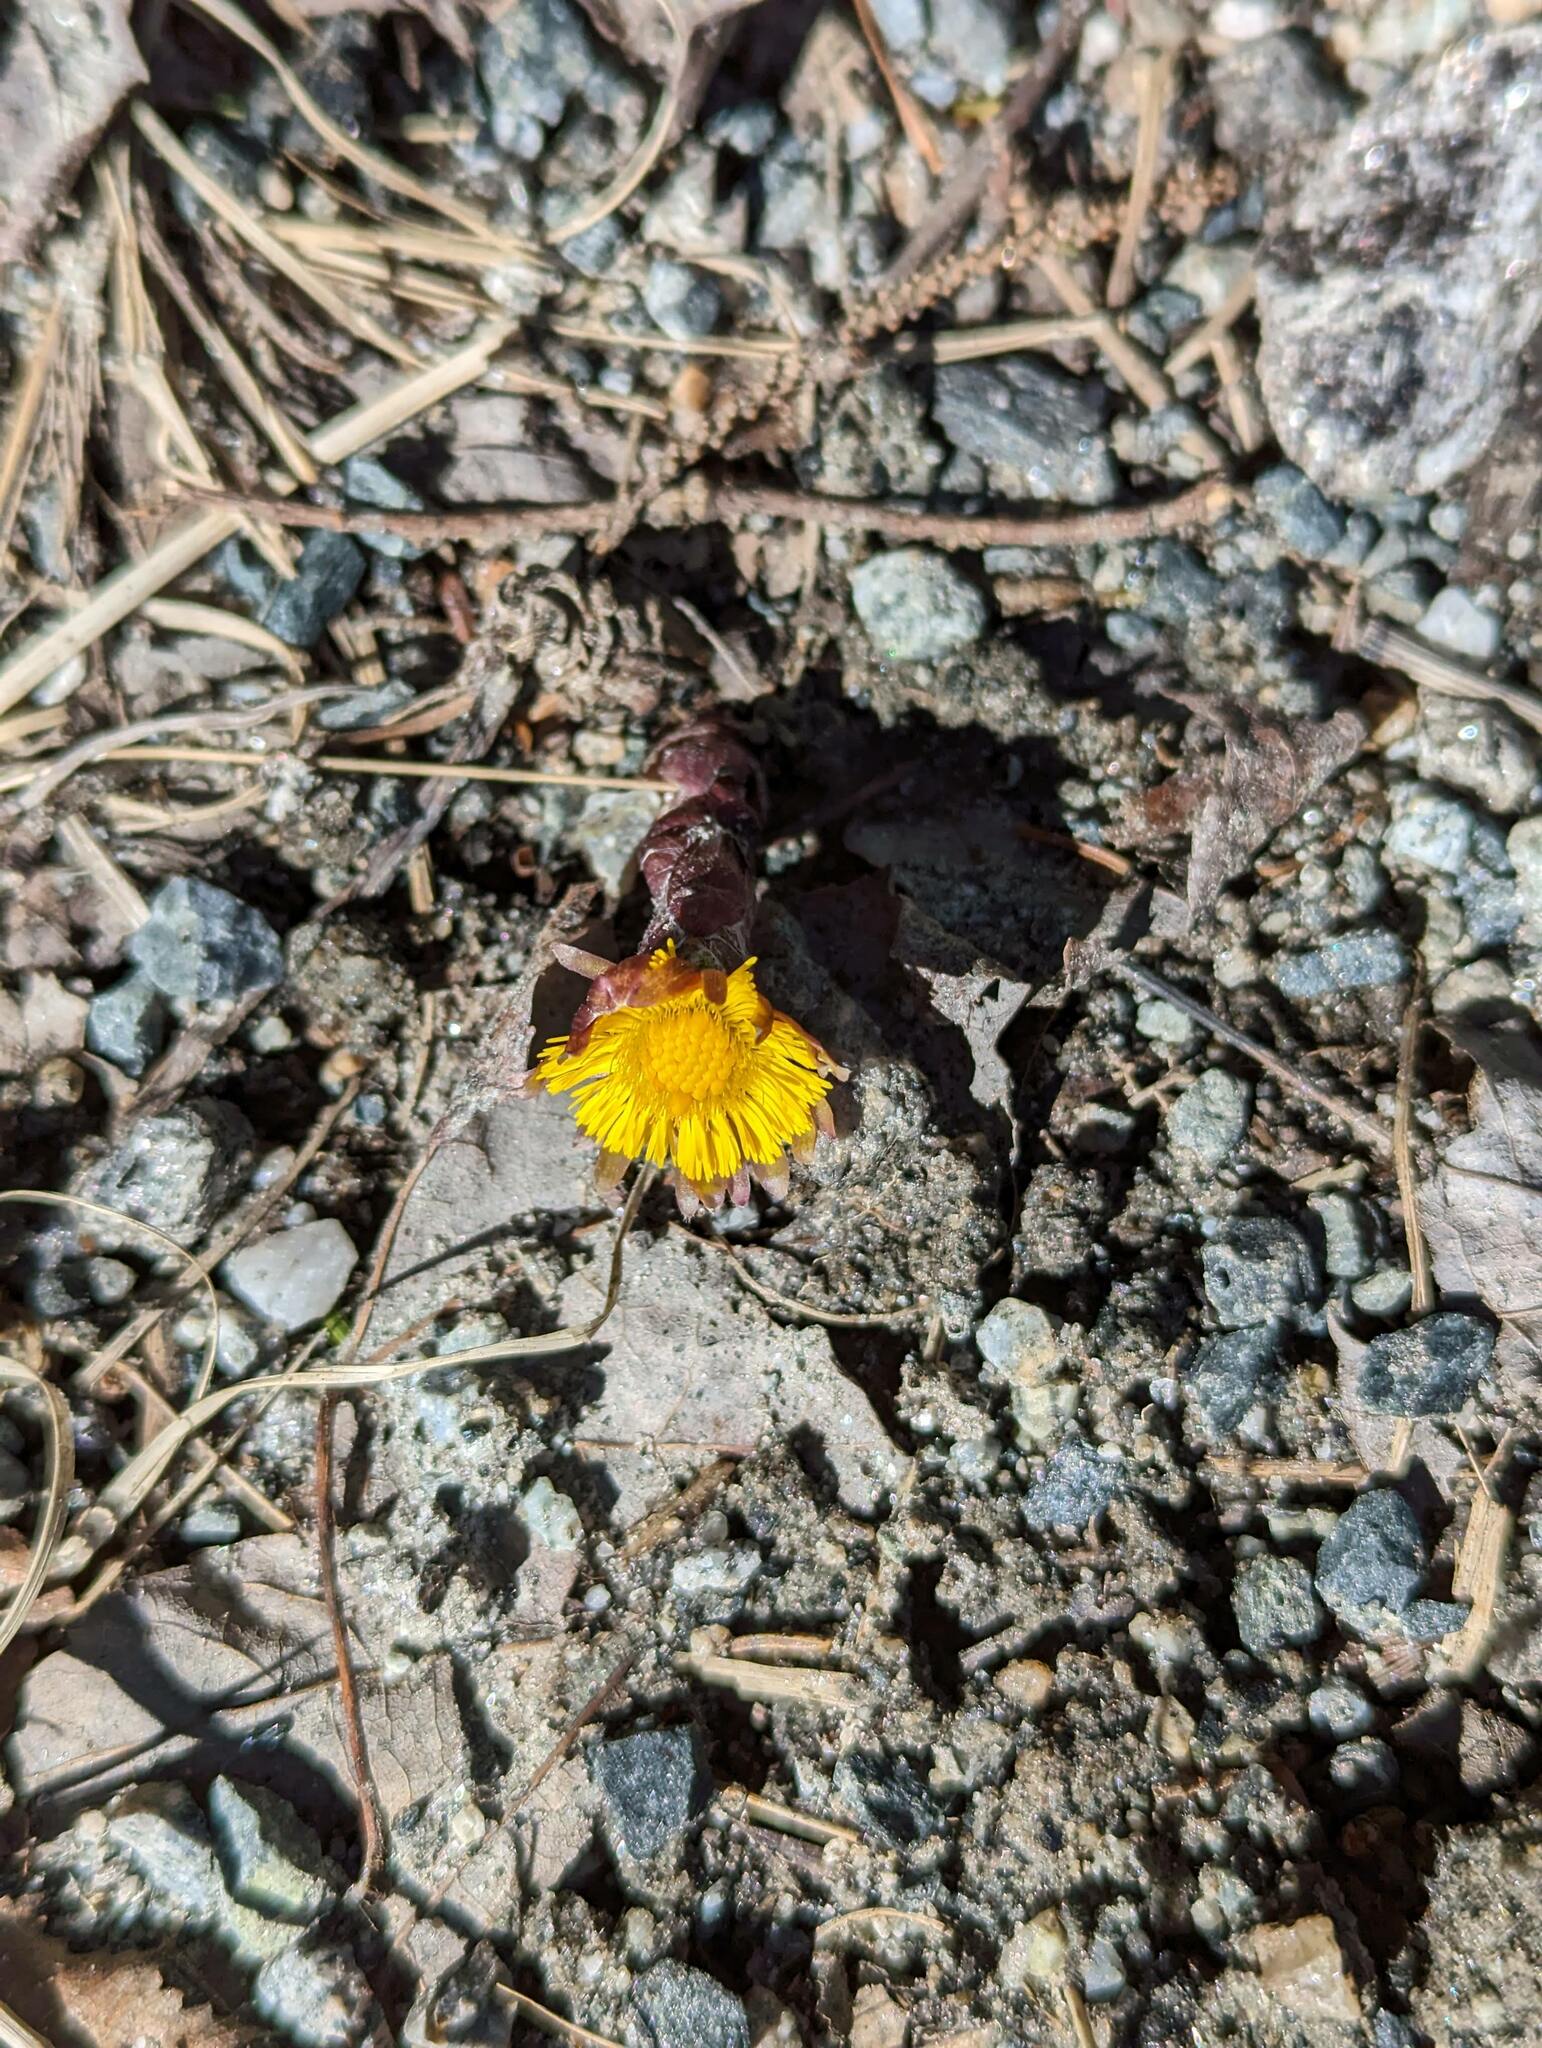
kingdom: Plantae
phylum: Tracheophyta
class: Magnoliopsida
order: Asterales
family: Asteraceae
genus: Tussilago
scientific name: Tussilago farfara
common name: Coltsfoot
